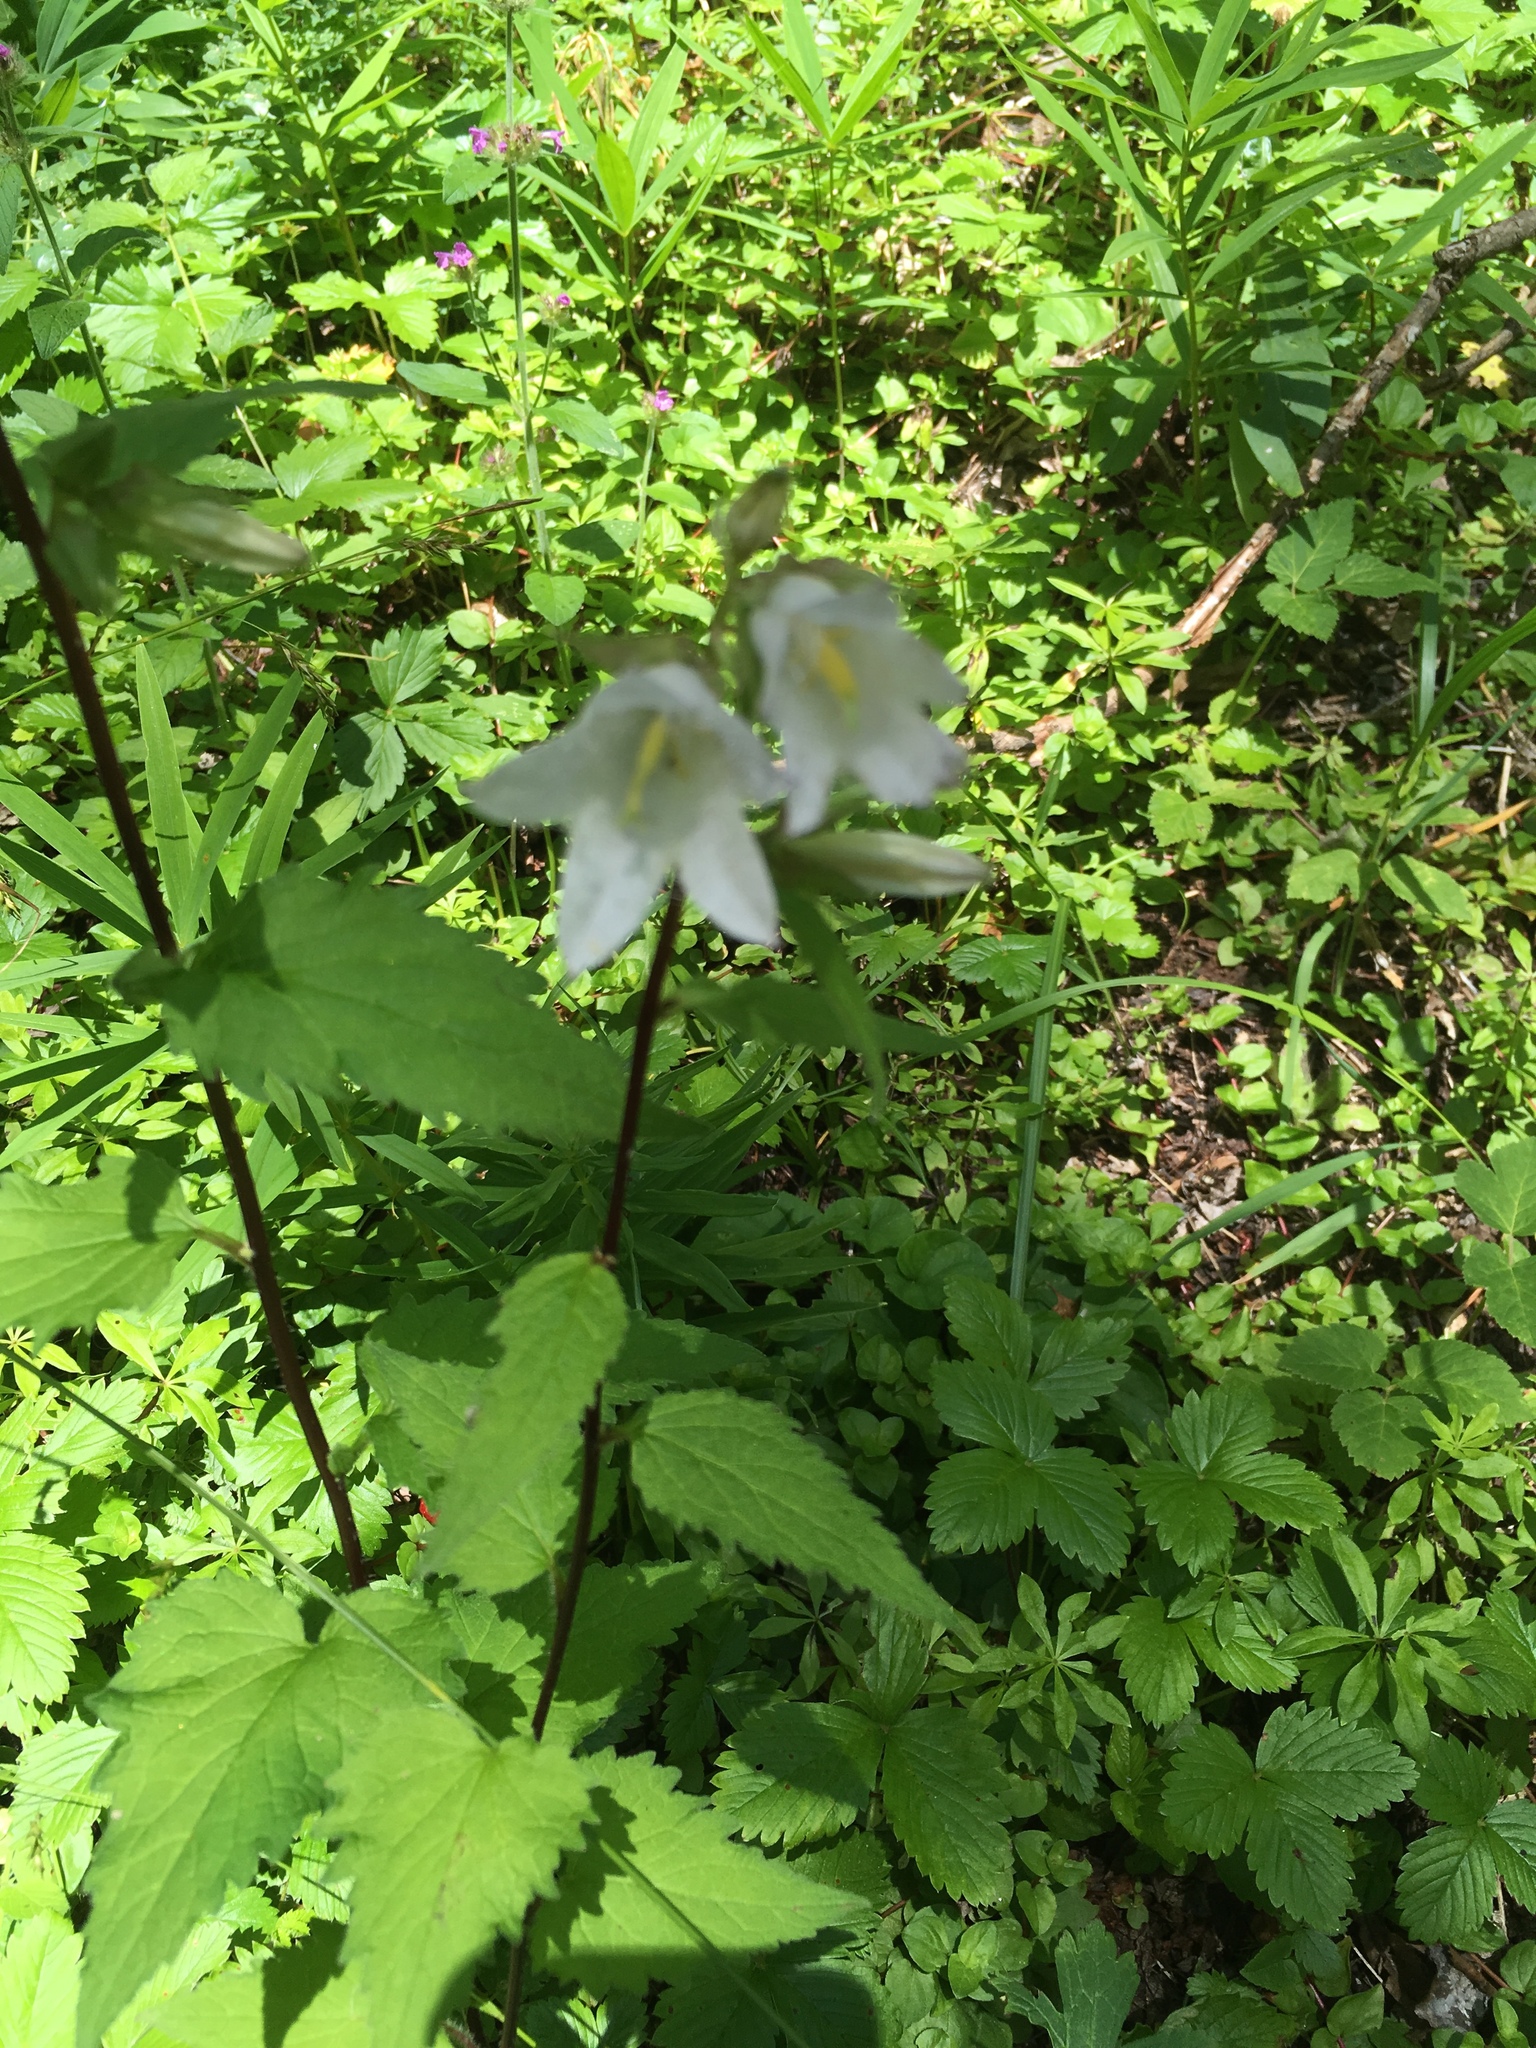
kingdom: Plantae
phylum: Tracheophyta
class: Magnoliopsida
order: Asterales
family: Campanulaceae
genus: Campanula
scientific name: Campanula trachelium
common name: Nettle-leaved bellflower
